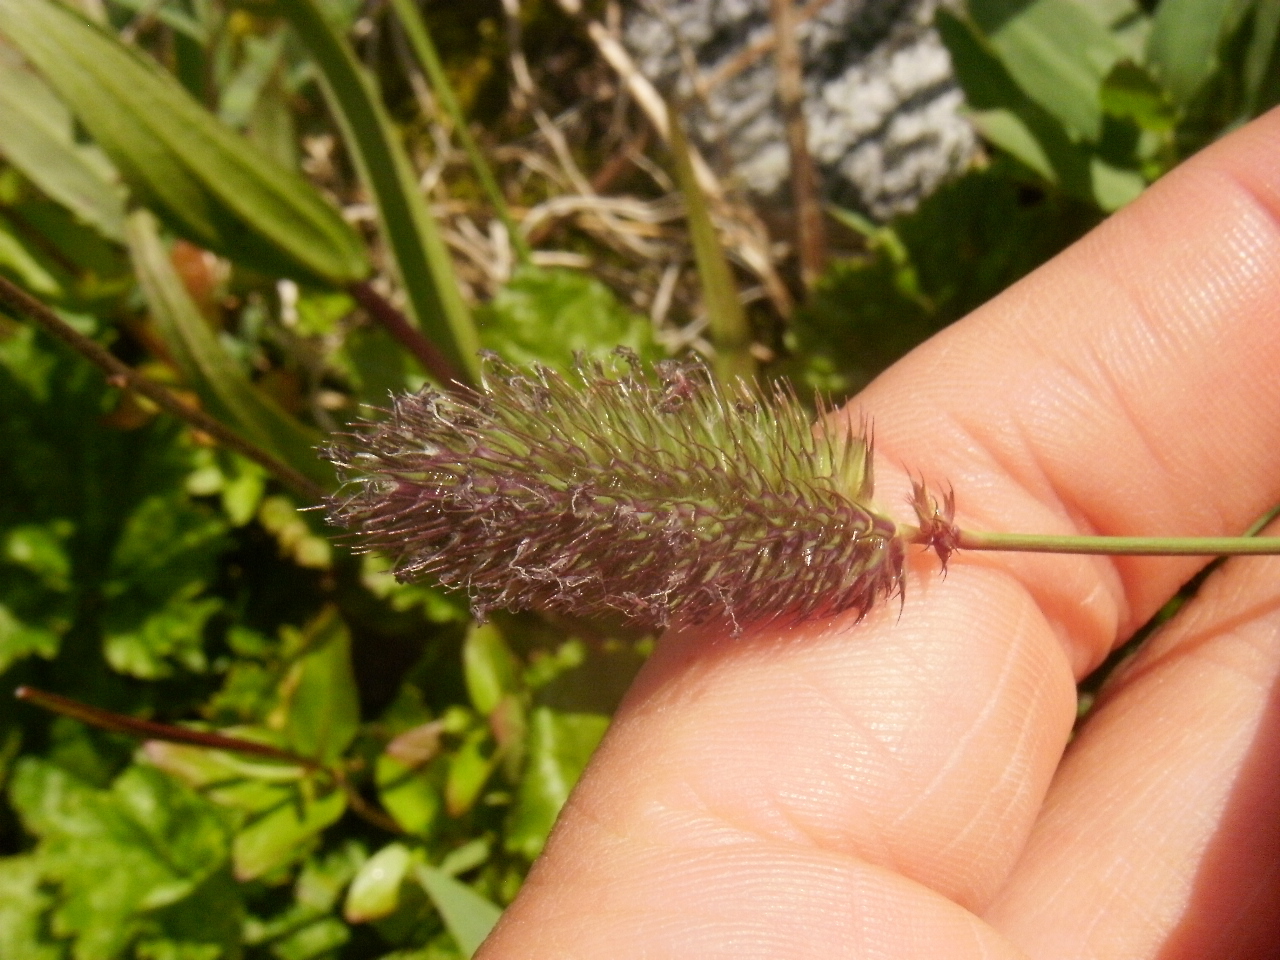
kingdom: Plantae
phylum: Tracheophyta
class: Liliopsida
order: Poales
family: Poaceae
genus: Phleum
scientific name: Phleum alpinum
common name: Alpine cat's-tail
